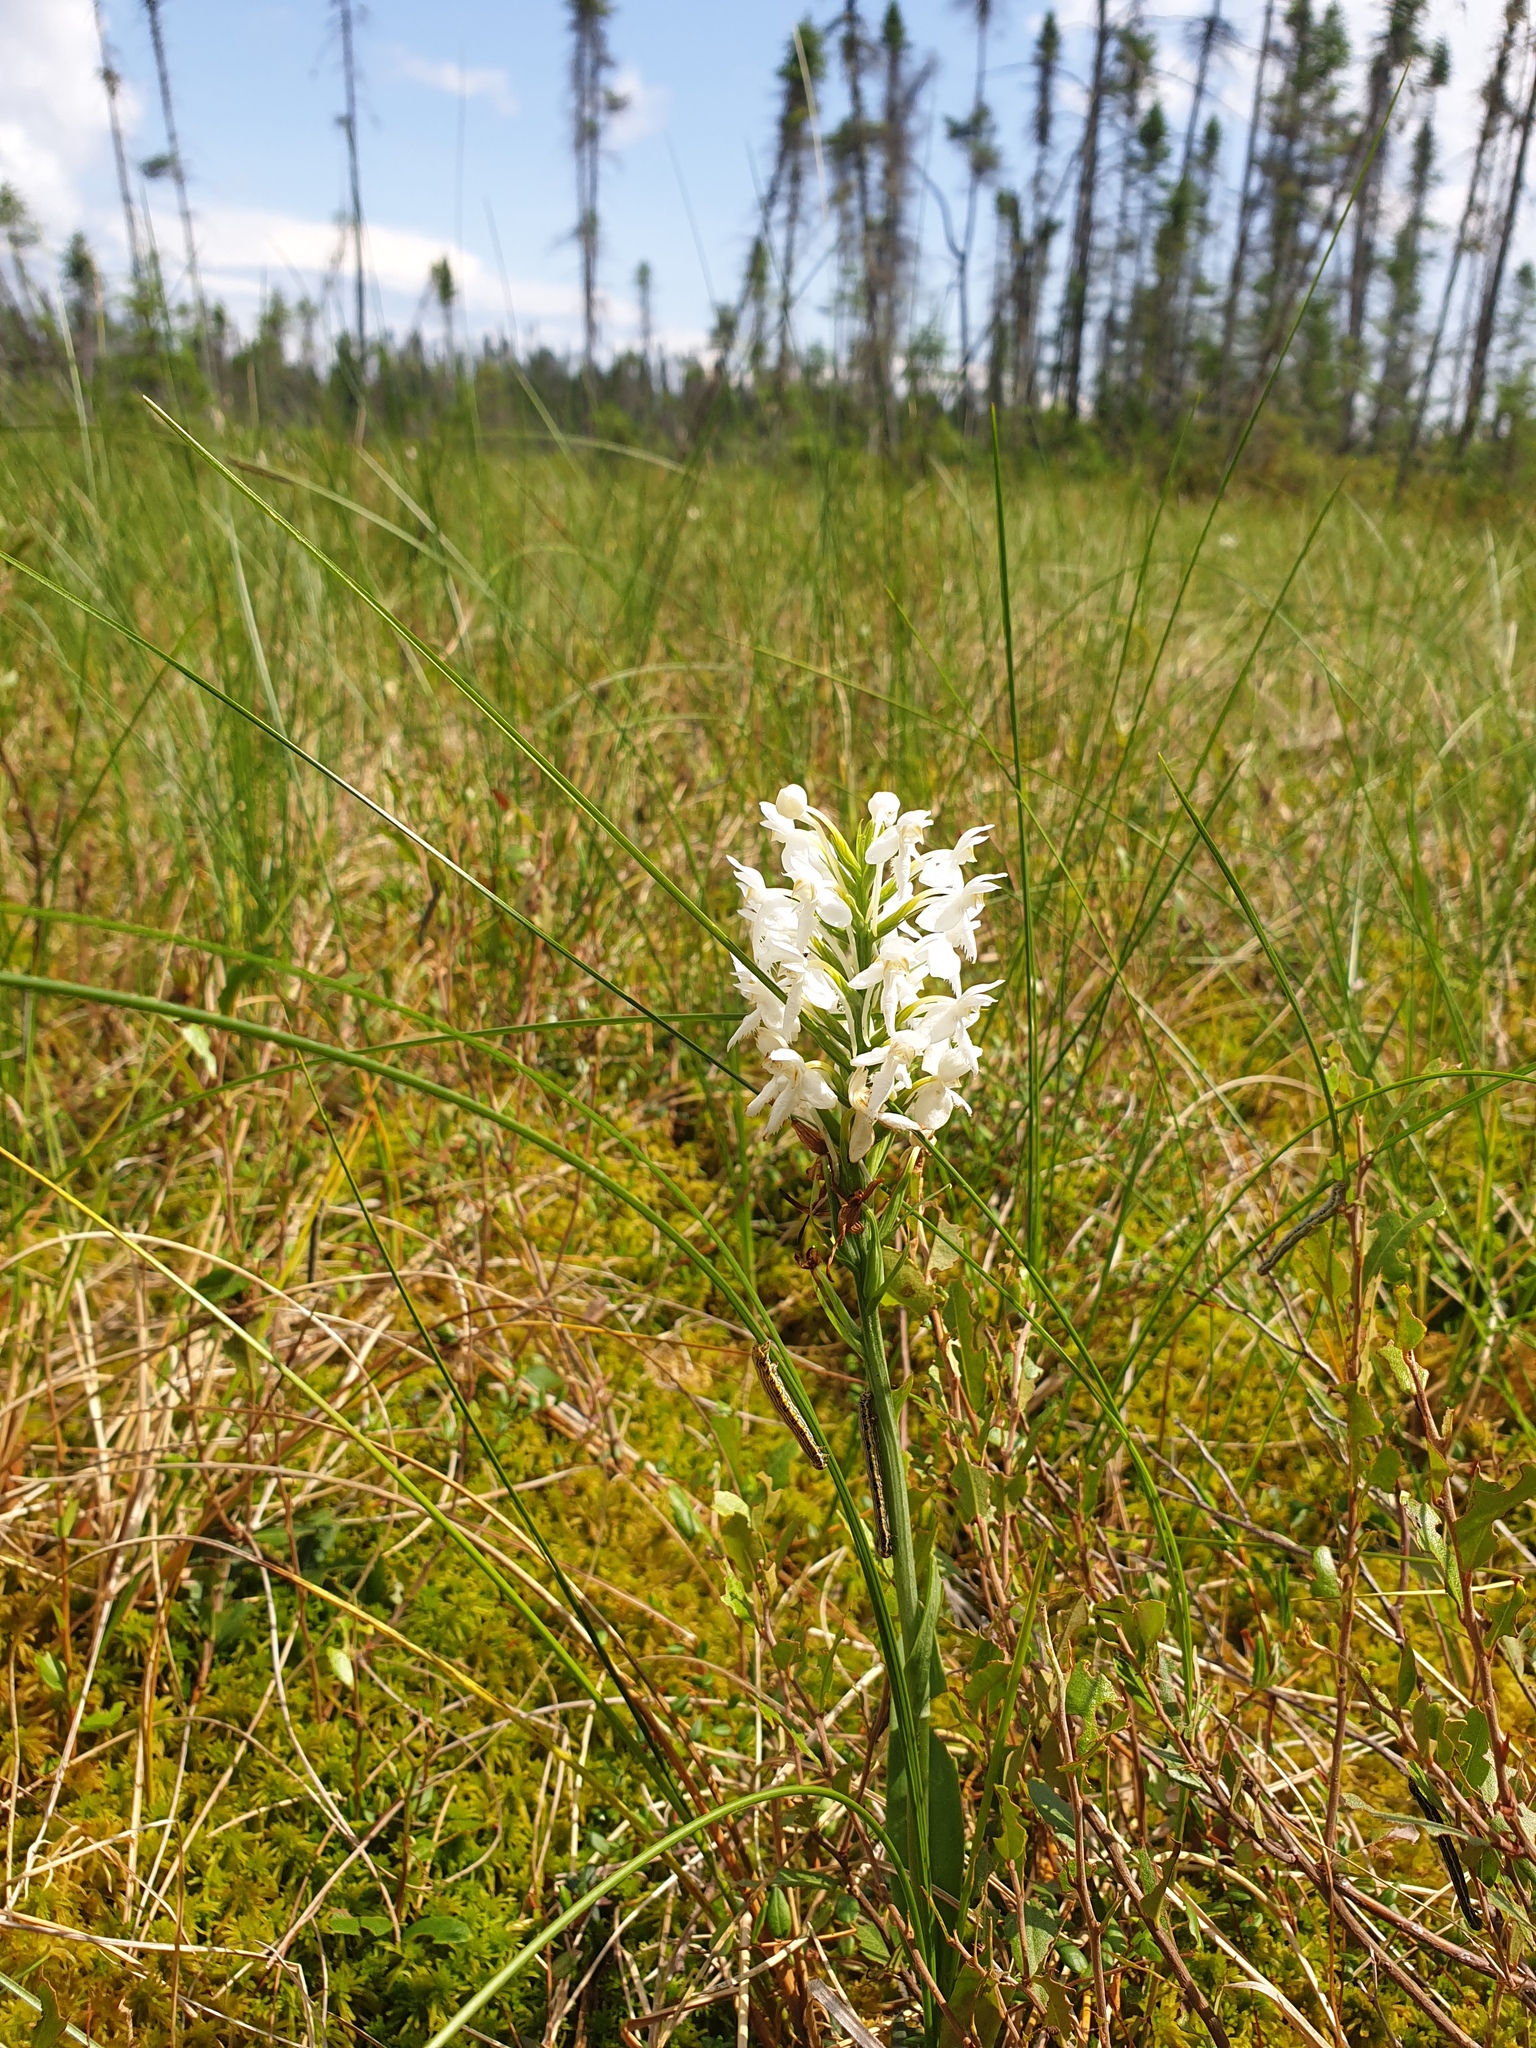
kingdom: Plantae
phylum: Tracheophyta
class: Liliopsida
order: Asparagales
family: Orchidaceae
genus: Platanthera
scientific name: Platanthera blephariglottis
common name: White fringed orchid
